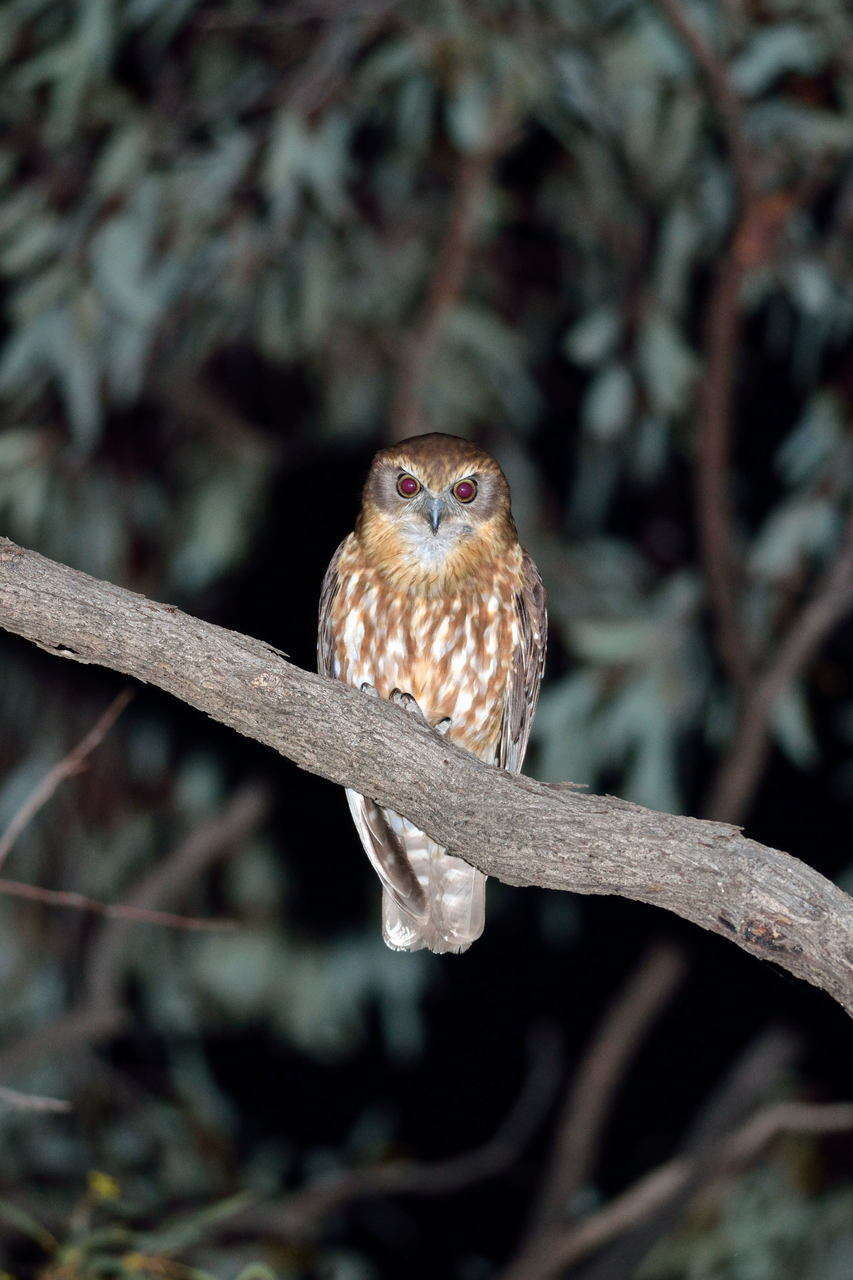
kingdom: Animalia
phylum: Chordata
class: Aves
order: Strigiformes
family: Strigidae
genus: Ninox
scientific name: Ninox boobook
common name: Southern boobook
